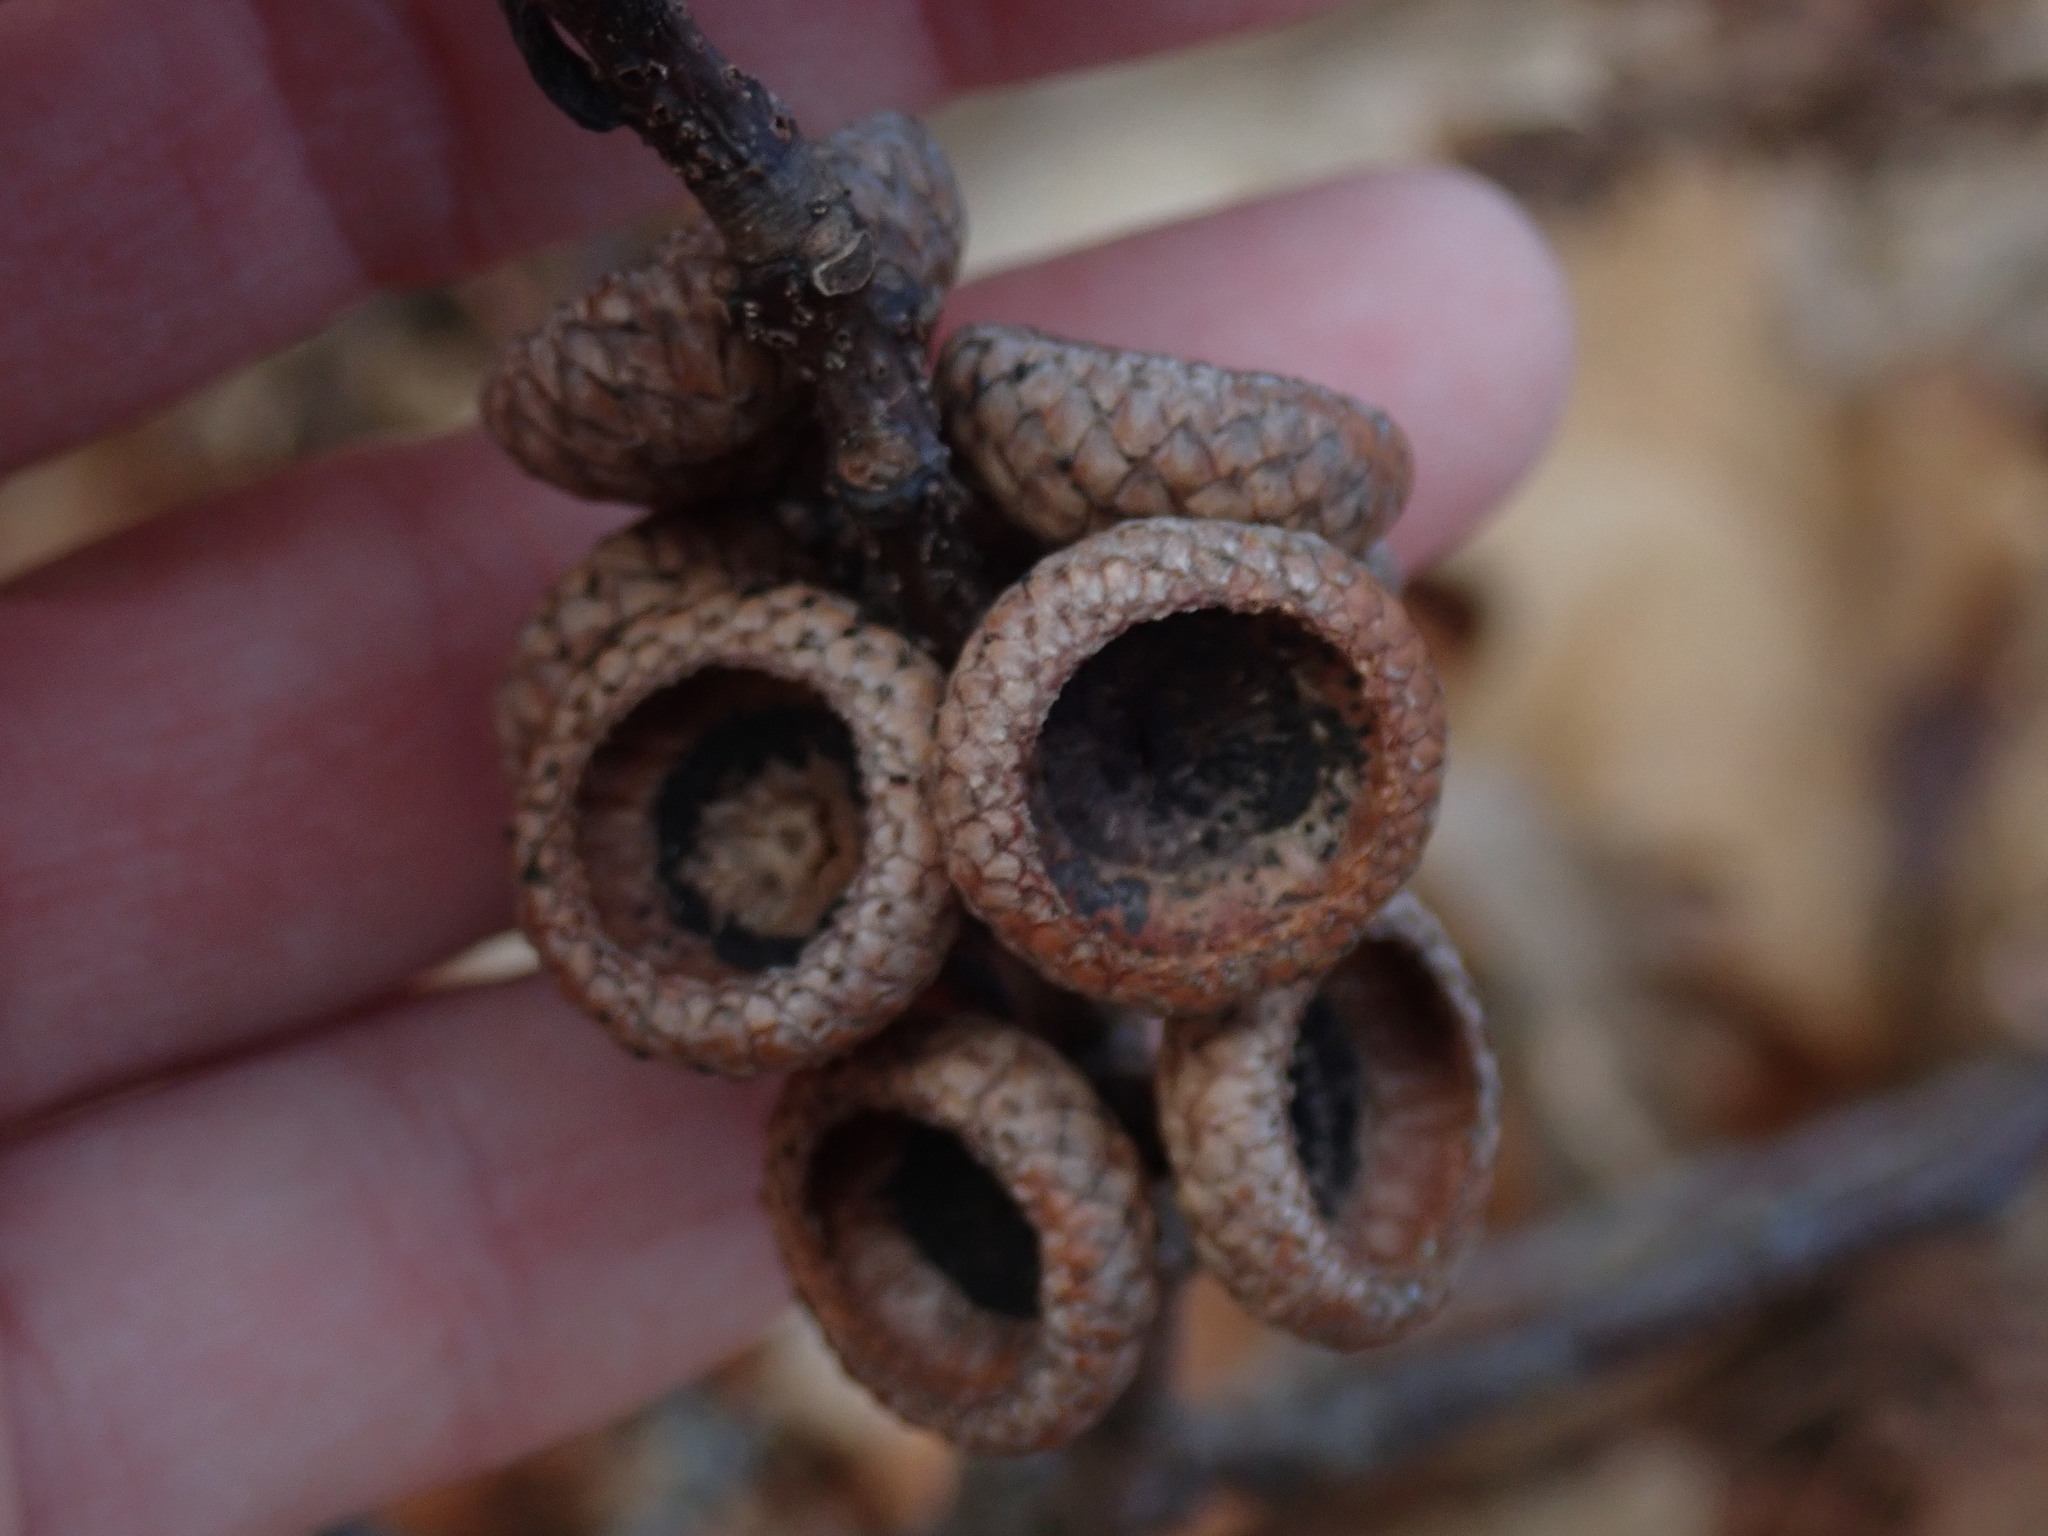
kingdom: Plantae
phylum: Tracheophyta
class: Magnoliopsida
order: Fagales
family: Fagaceae
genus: Quercus
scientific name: Quercus rubra
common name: Red oak
